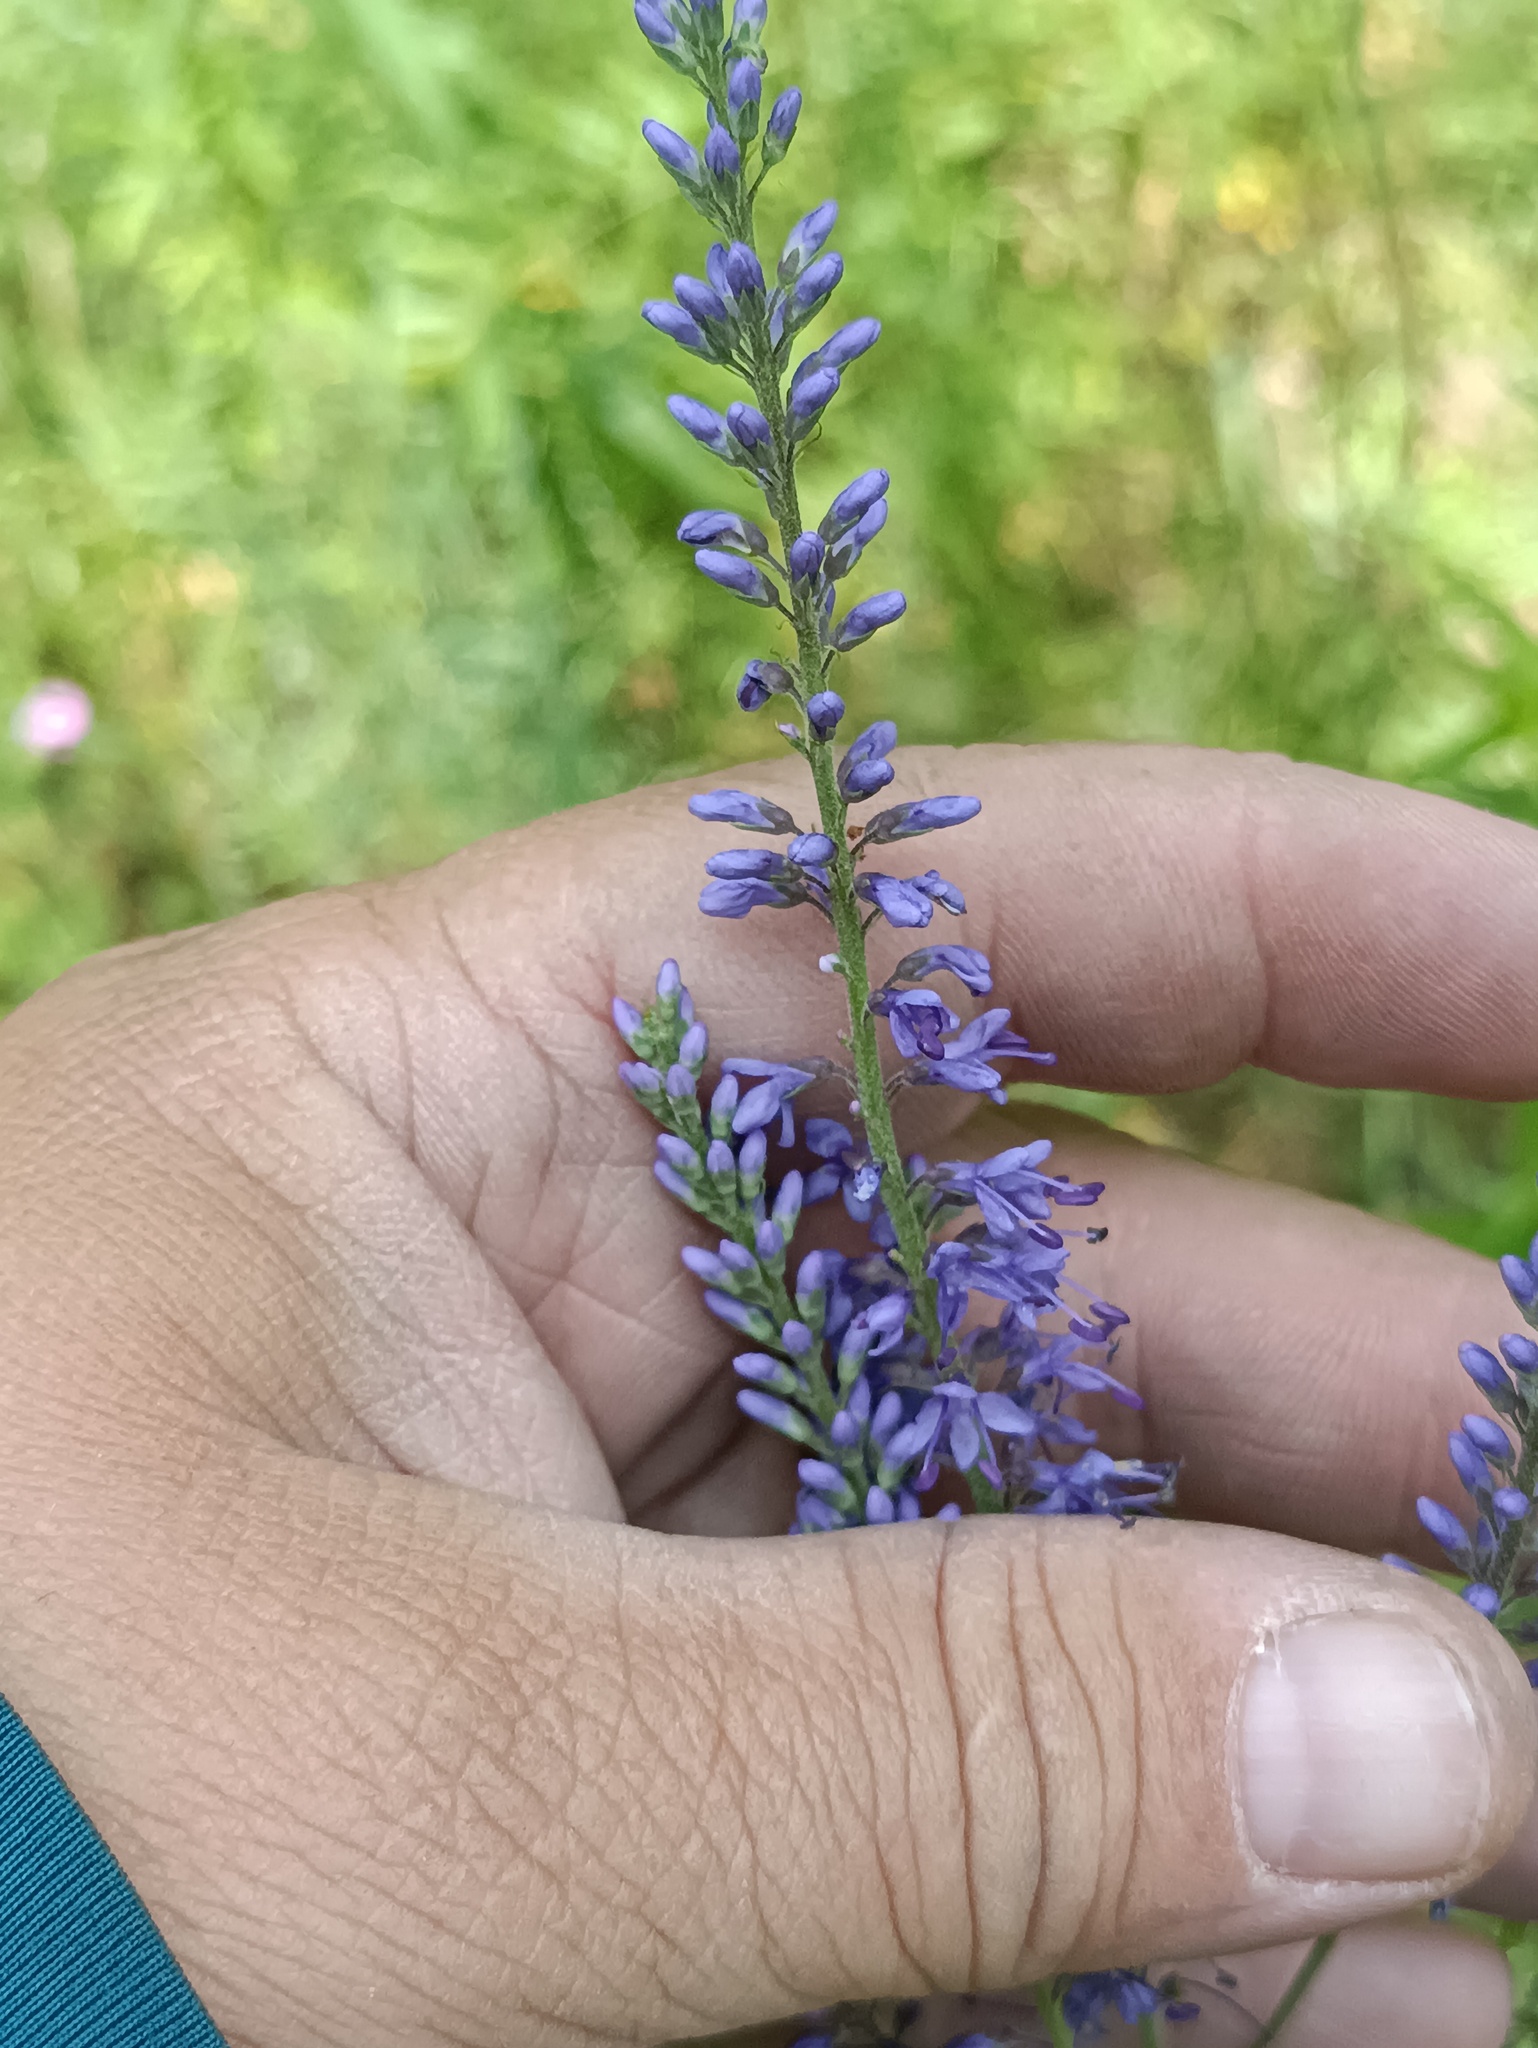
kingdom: Plantae
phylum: Tracheophyta
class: Magnoliopsida
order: Lamiales
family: Plantaginaceae
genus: Veronica
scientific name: Veronica longifolia
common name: Garden speedwell
